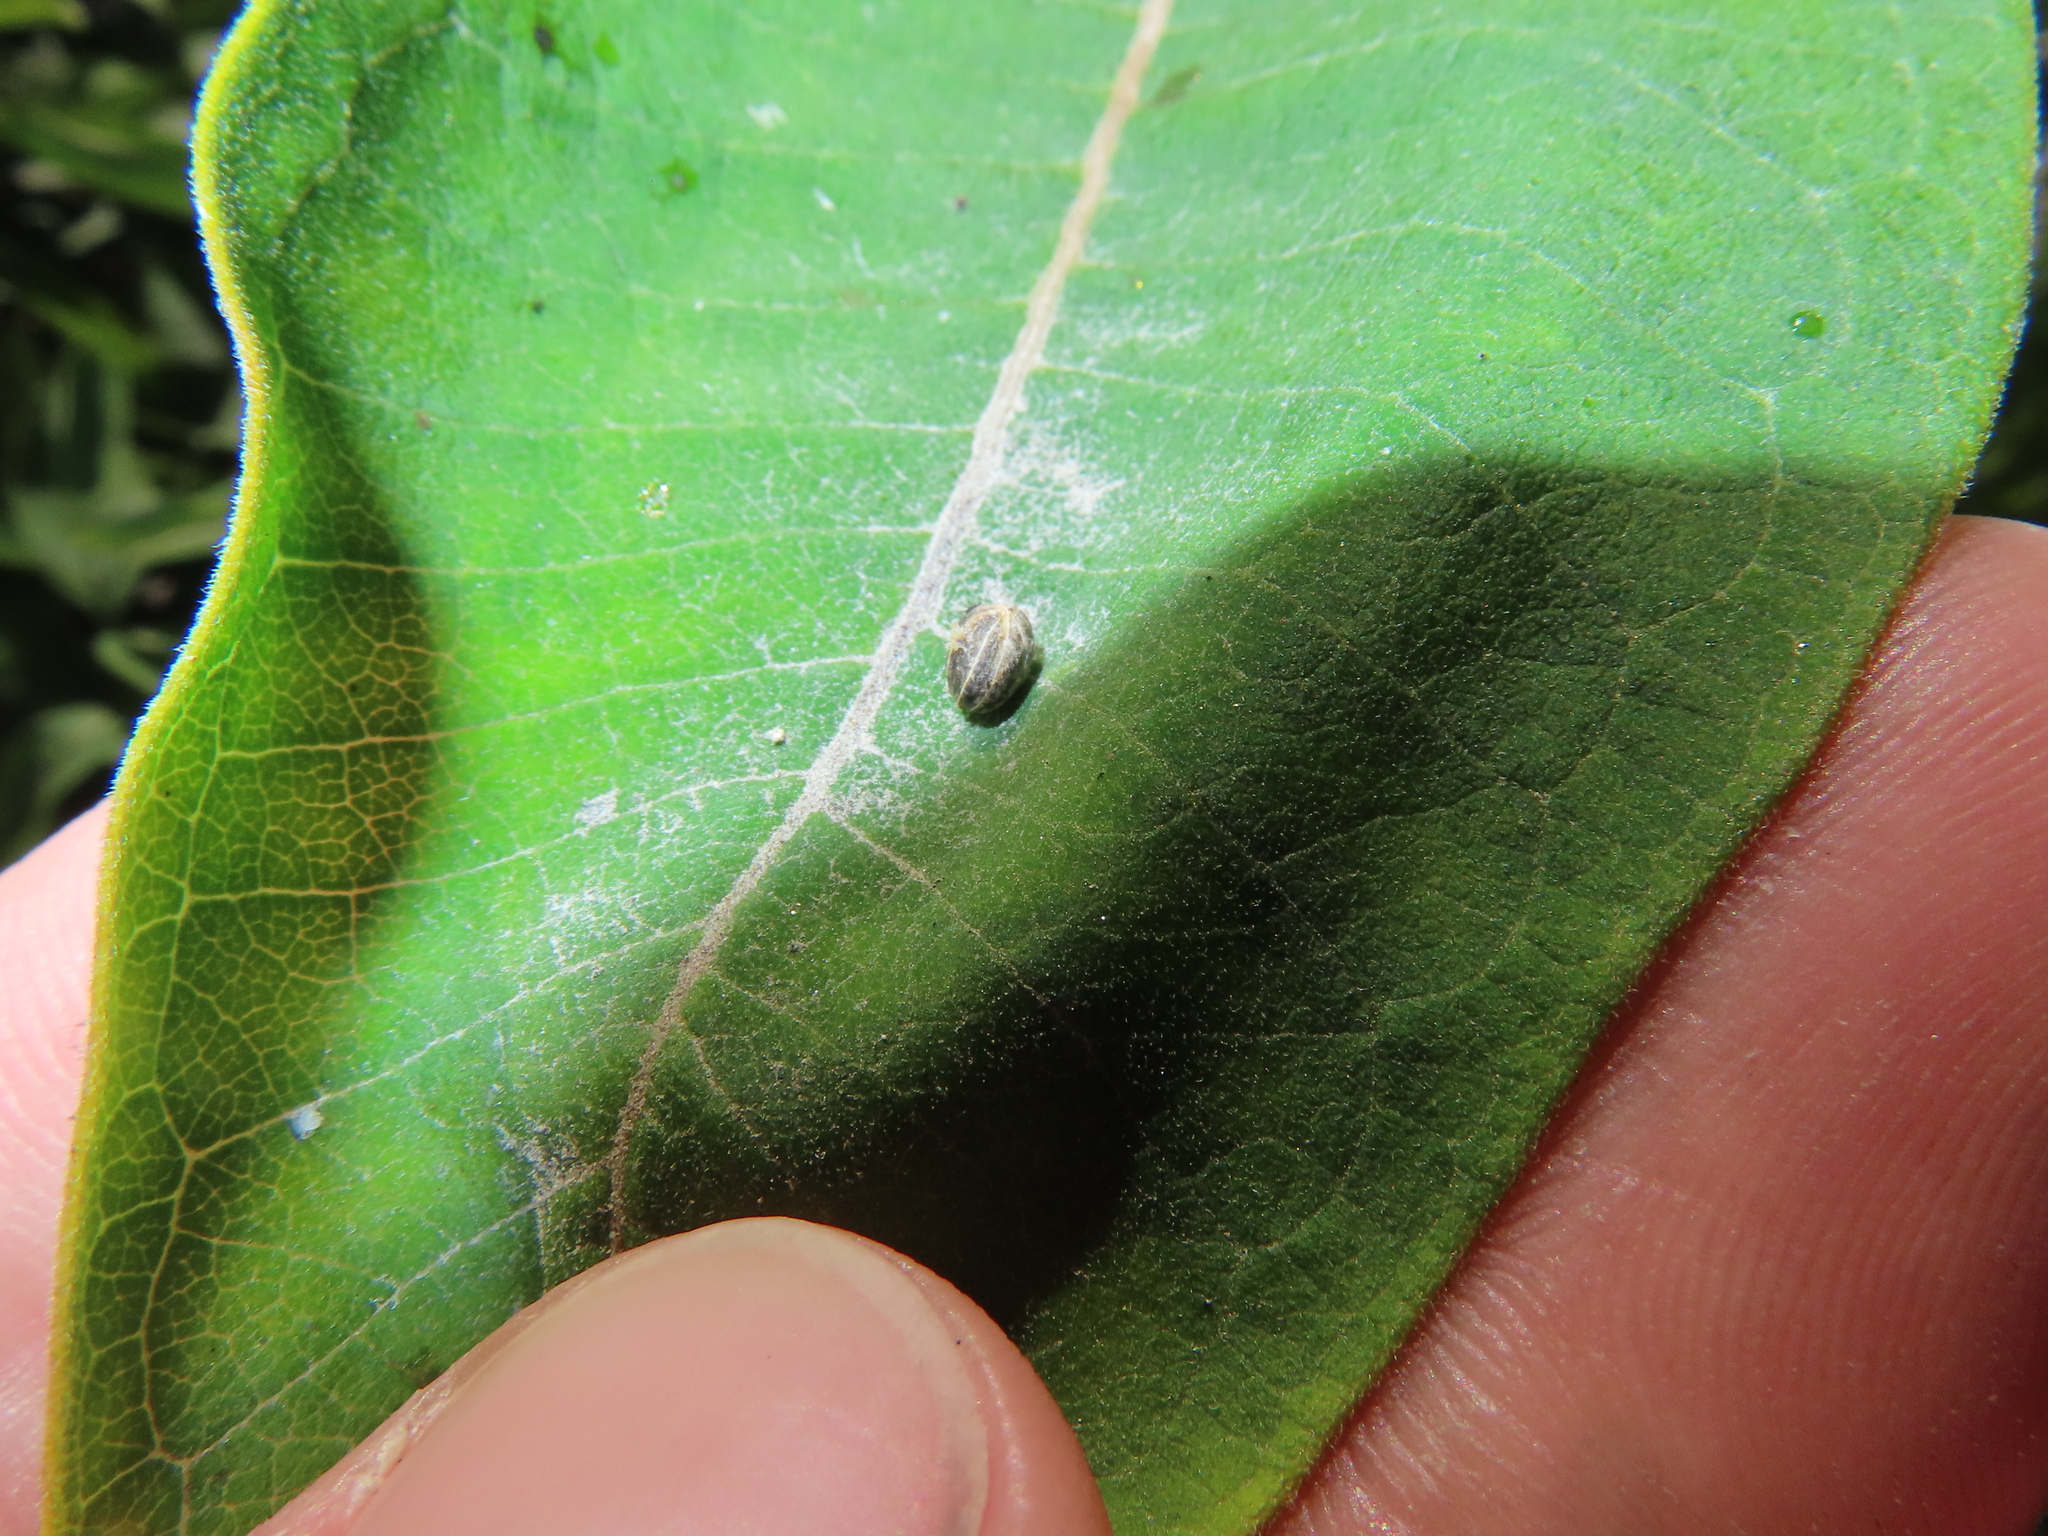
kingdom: Animalia
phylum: Arthropoda
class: Insecta
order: Coleoptera
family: Curculionidae
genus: Rhyssomatus
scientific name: Rhyssomatus lineaticollis
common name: Milkweed stem weevil
